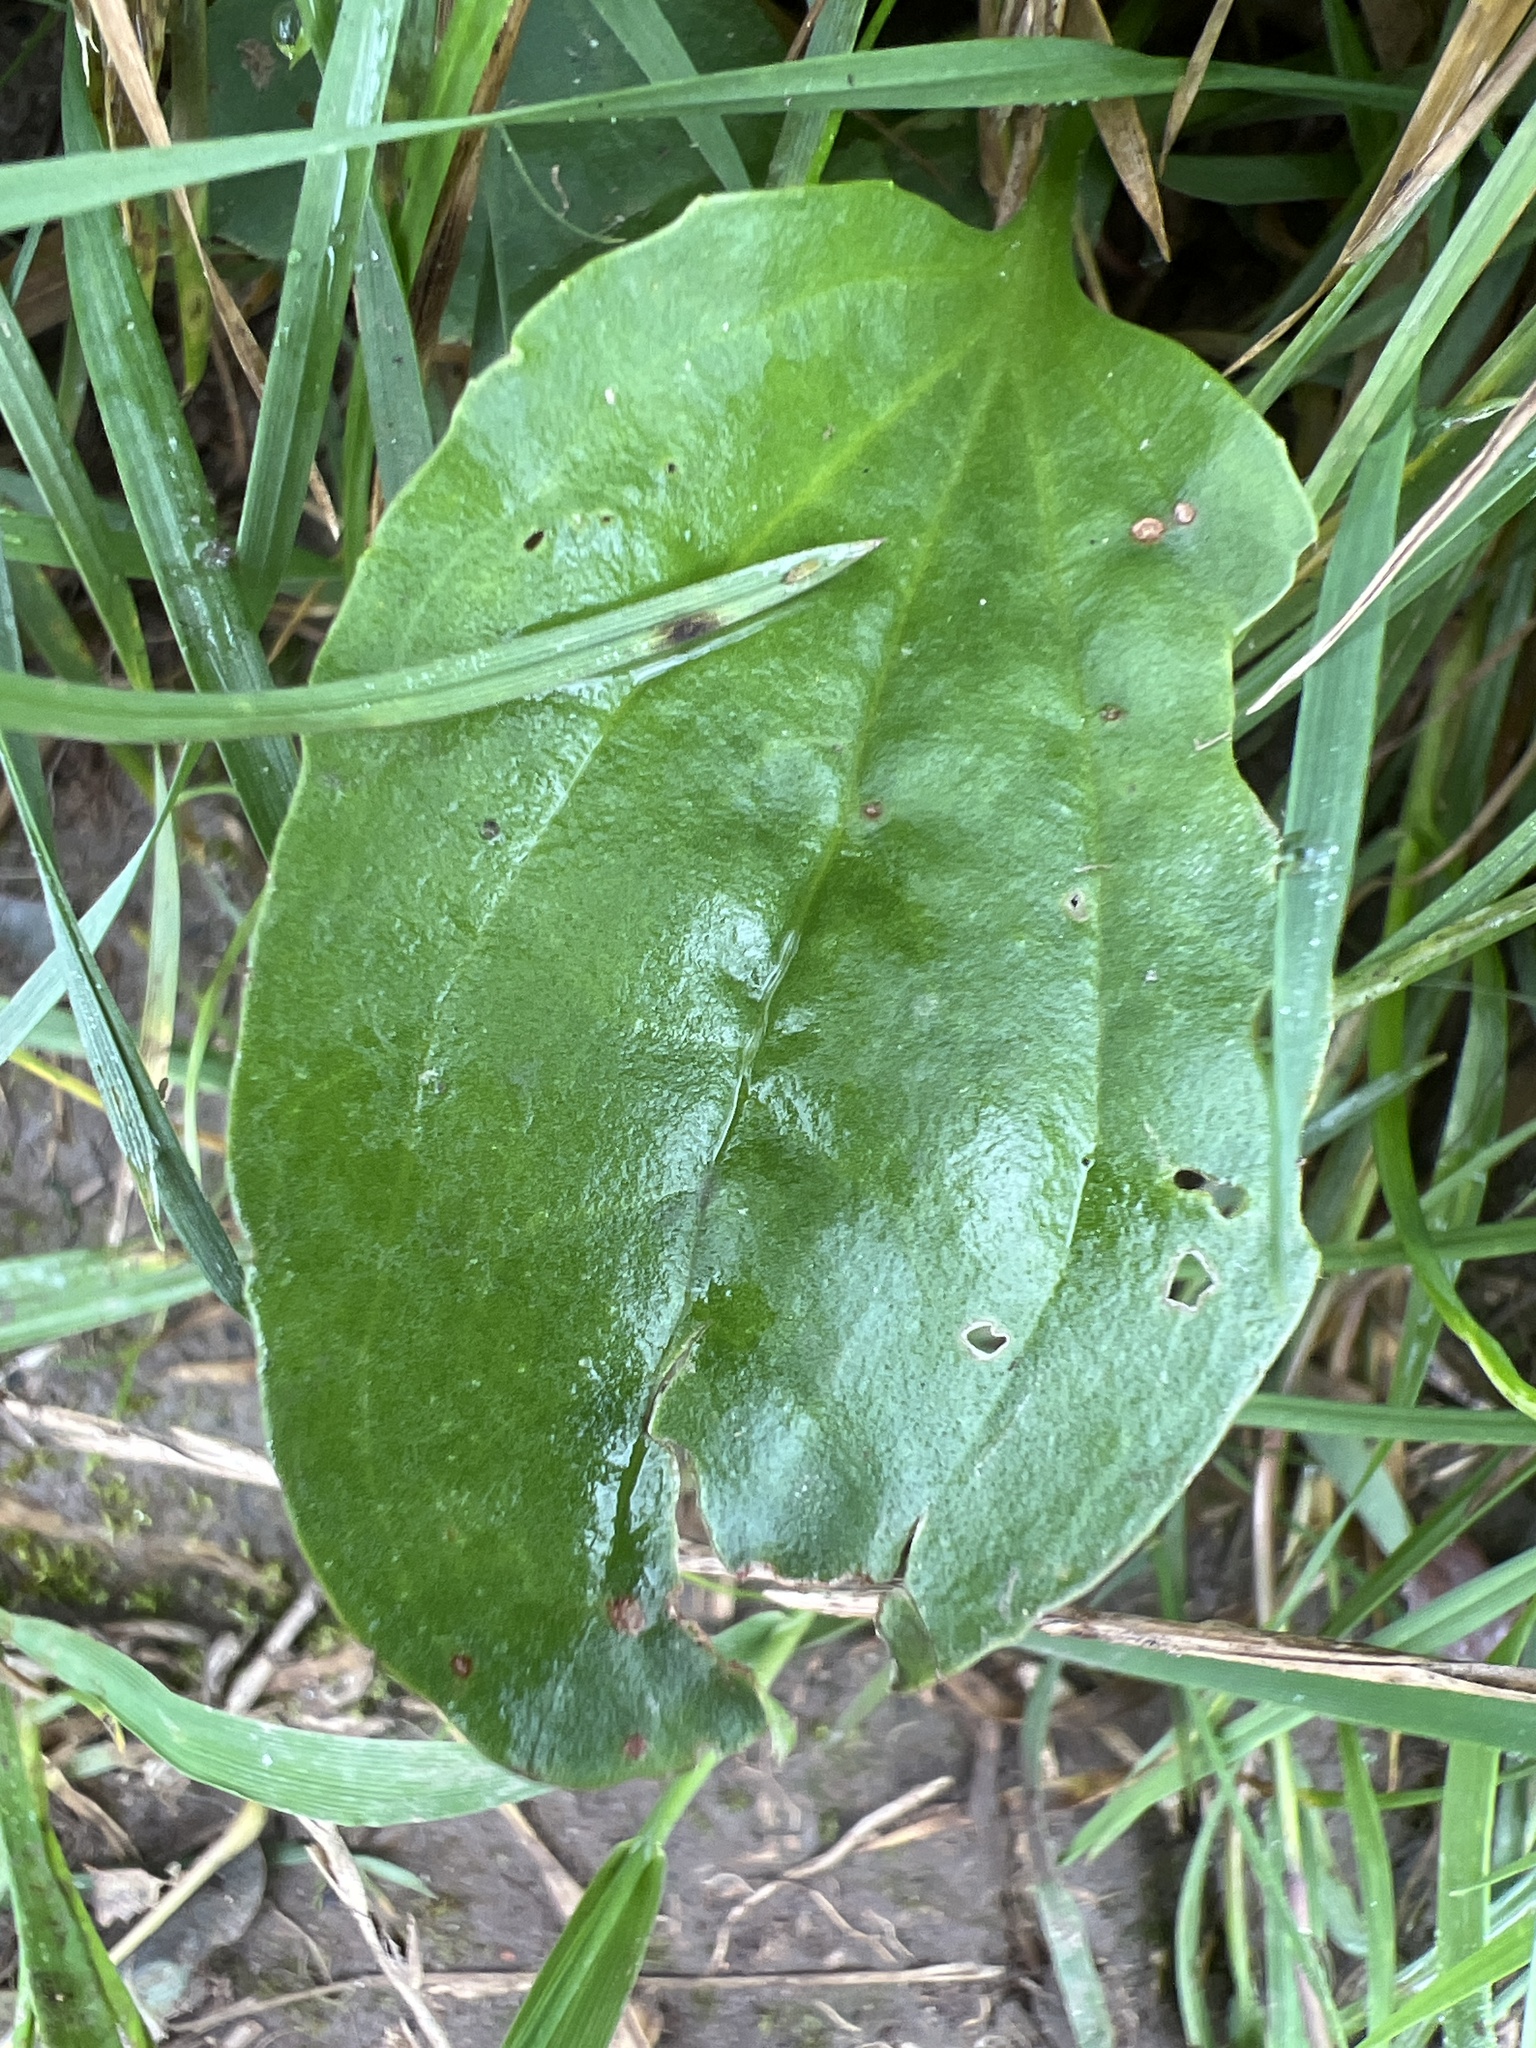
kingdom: Plantae
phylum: Tracheophyta
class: Magnoliopsida
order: Lamiales
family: Plantaginaceae
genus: Plantago
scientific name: Plantago major
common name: Common plantain
